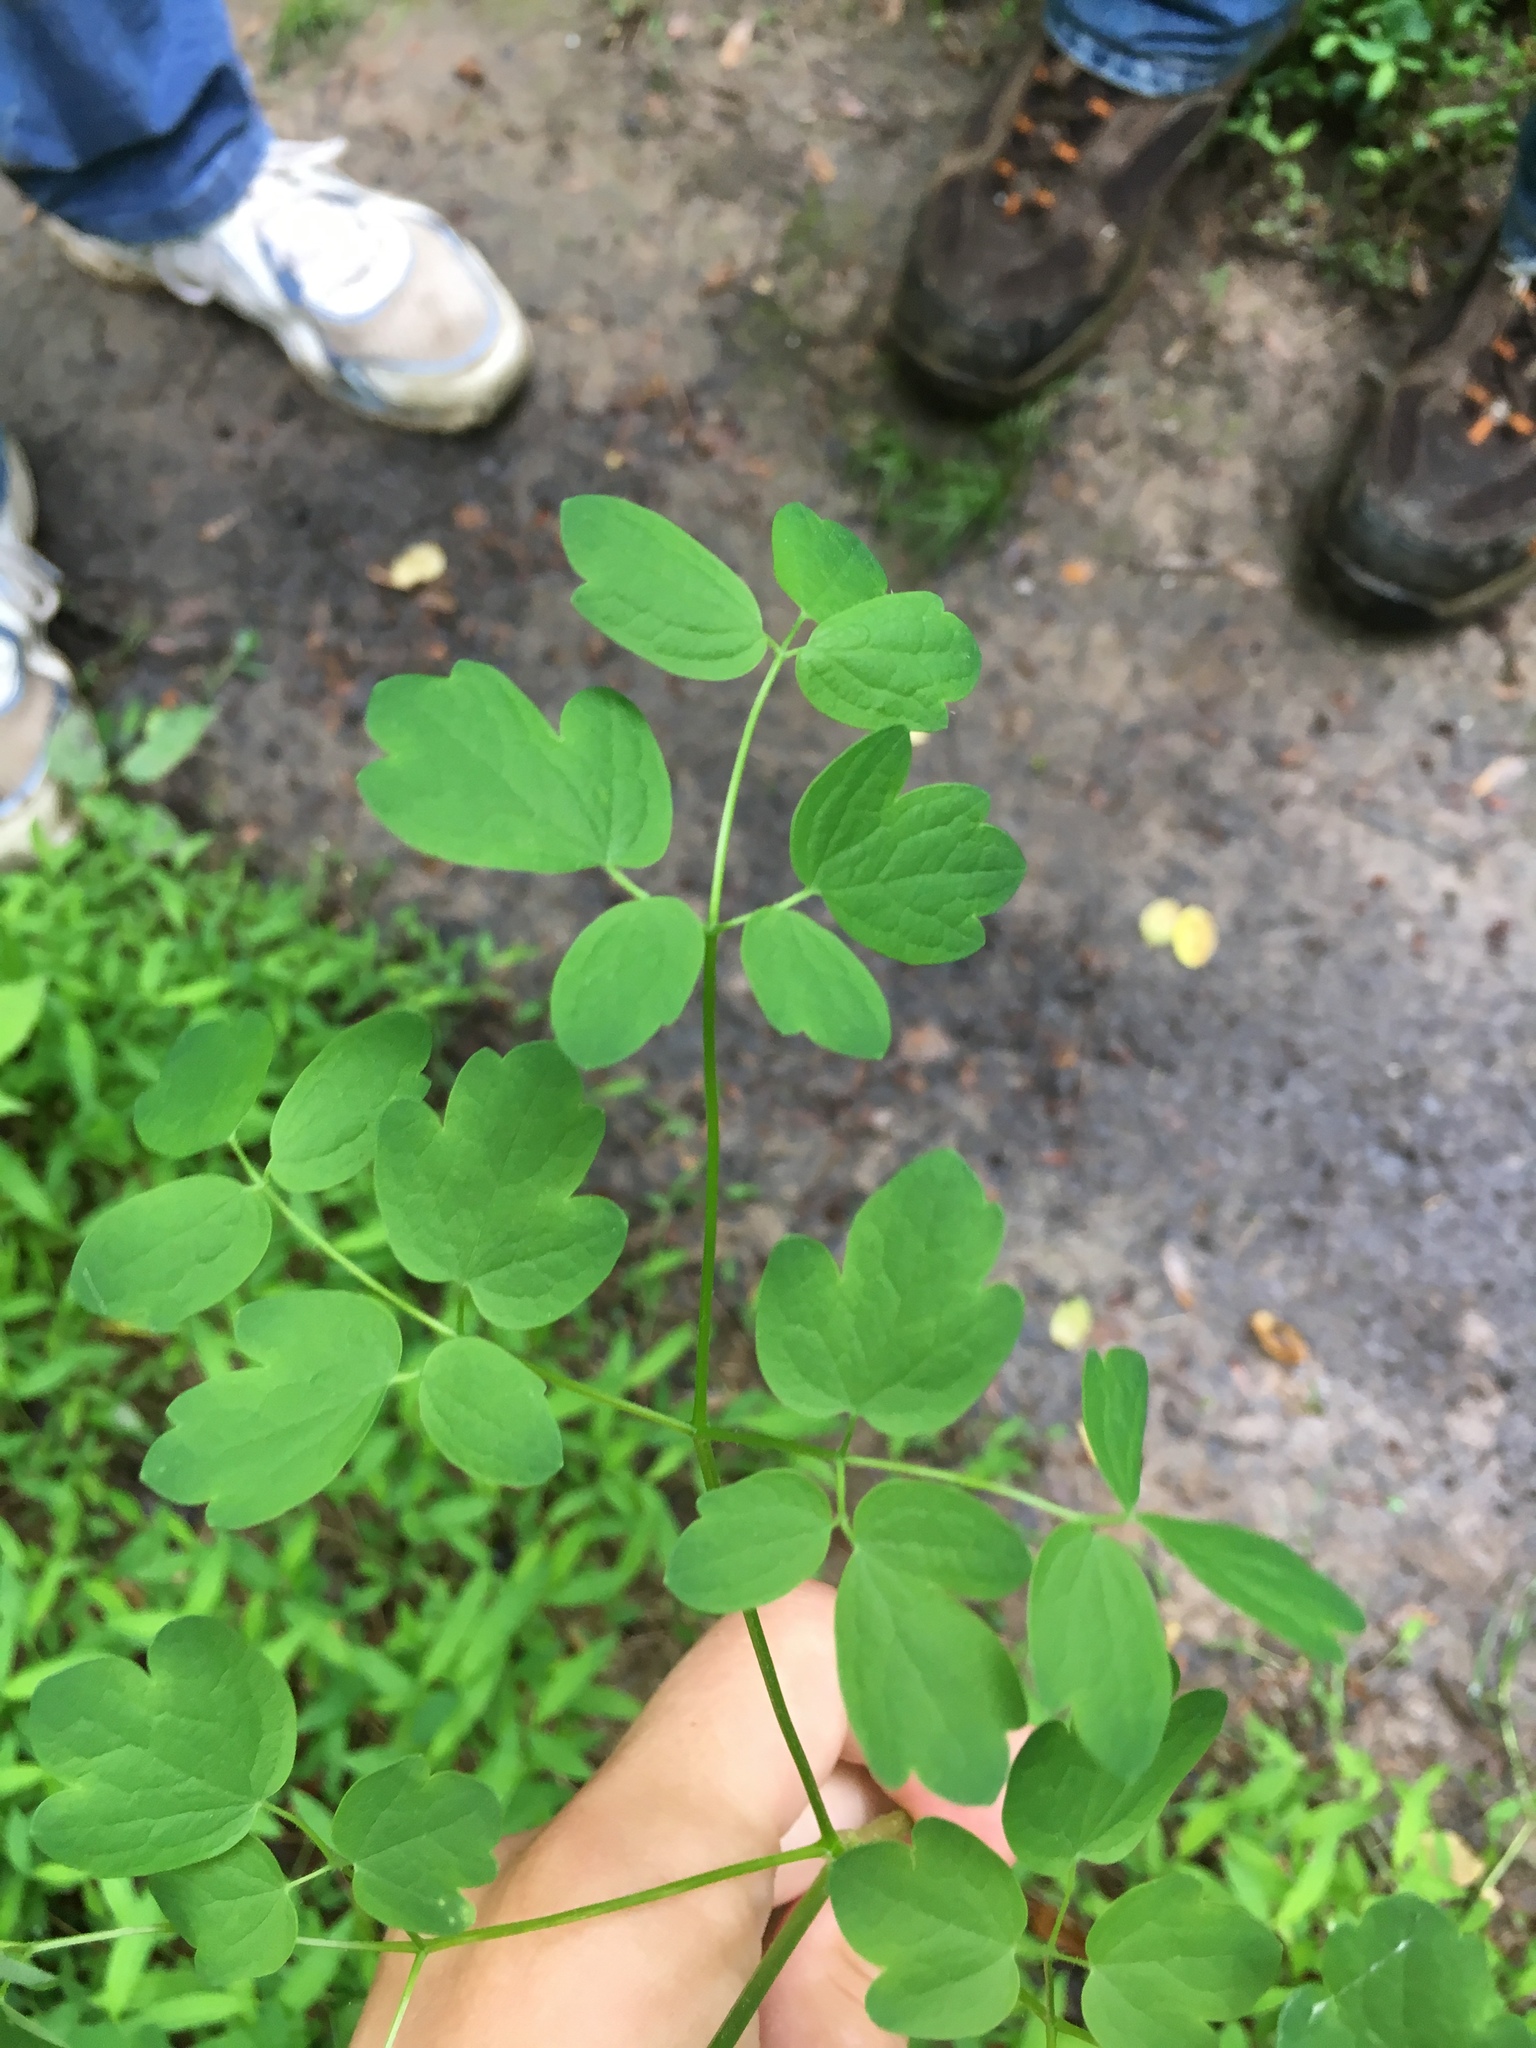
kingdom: Plantae
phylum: Tracheophyta
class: Magnoliopsida
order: Ranunculales
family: Ranunculaceae
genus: Thalictrum
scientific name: Thalictrum pubescens
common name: King-of-the-meadow
